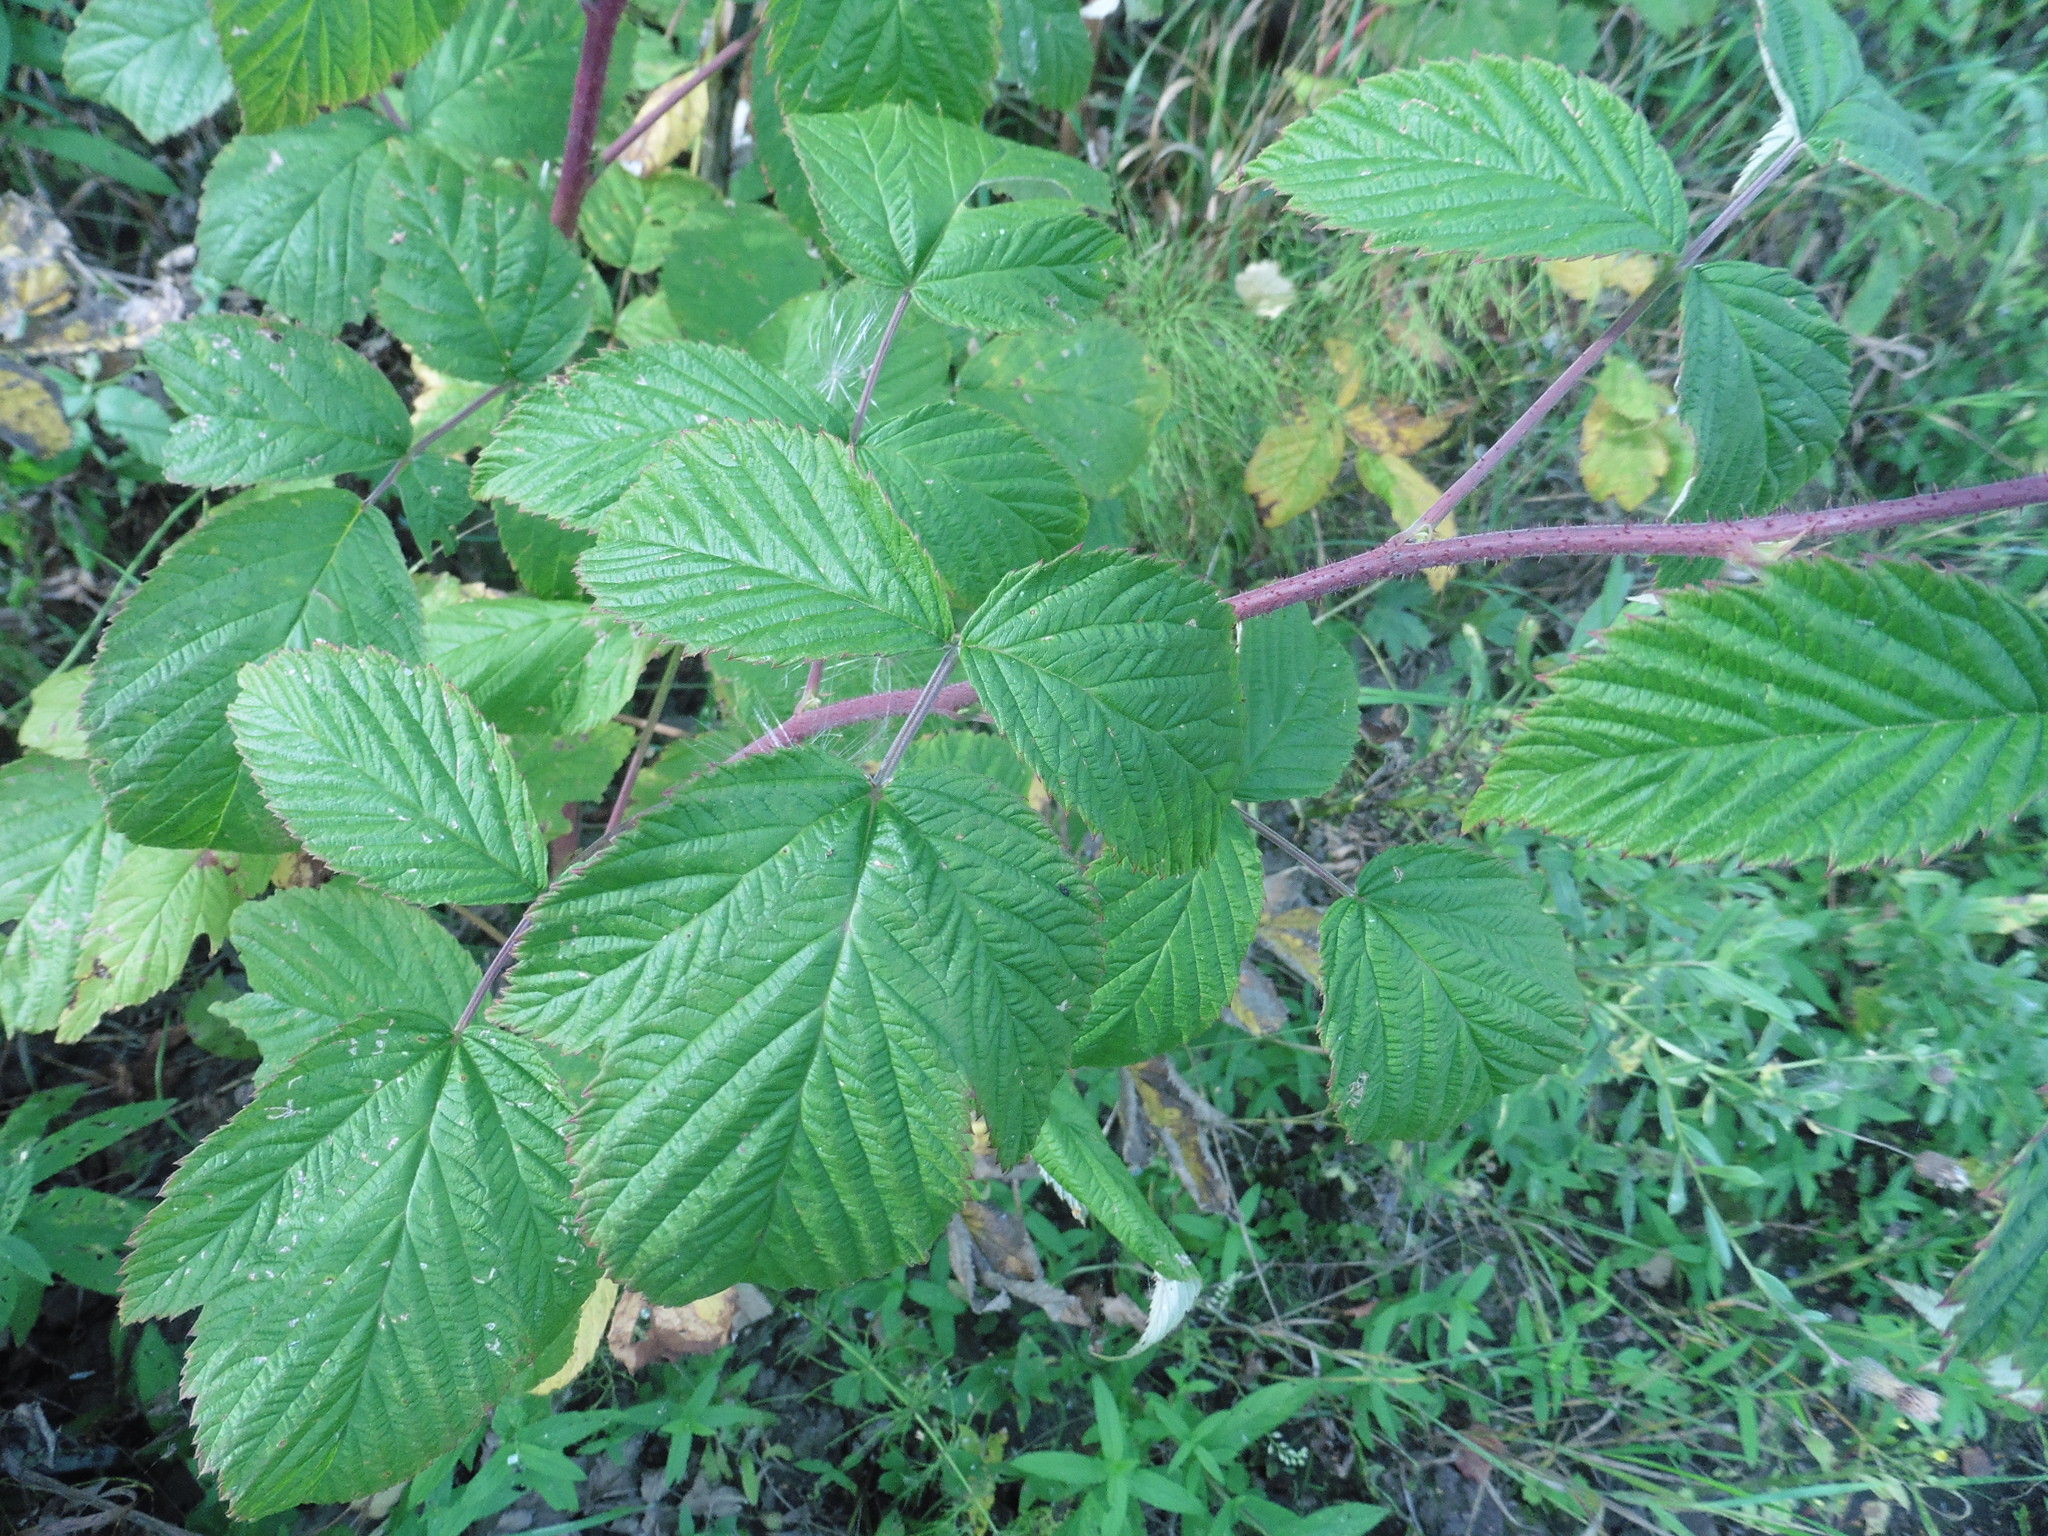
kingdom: Plantae
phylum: Tracheophyta
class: Magnoliopsida
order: Rosales
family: Rosaceae
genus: Rubus
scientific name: Rubus idaeus
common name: Raspberry
